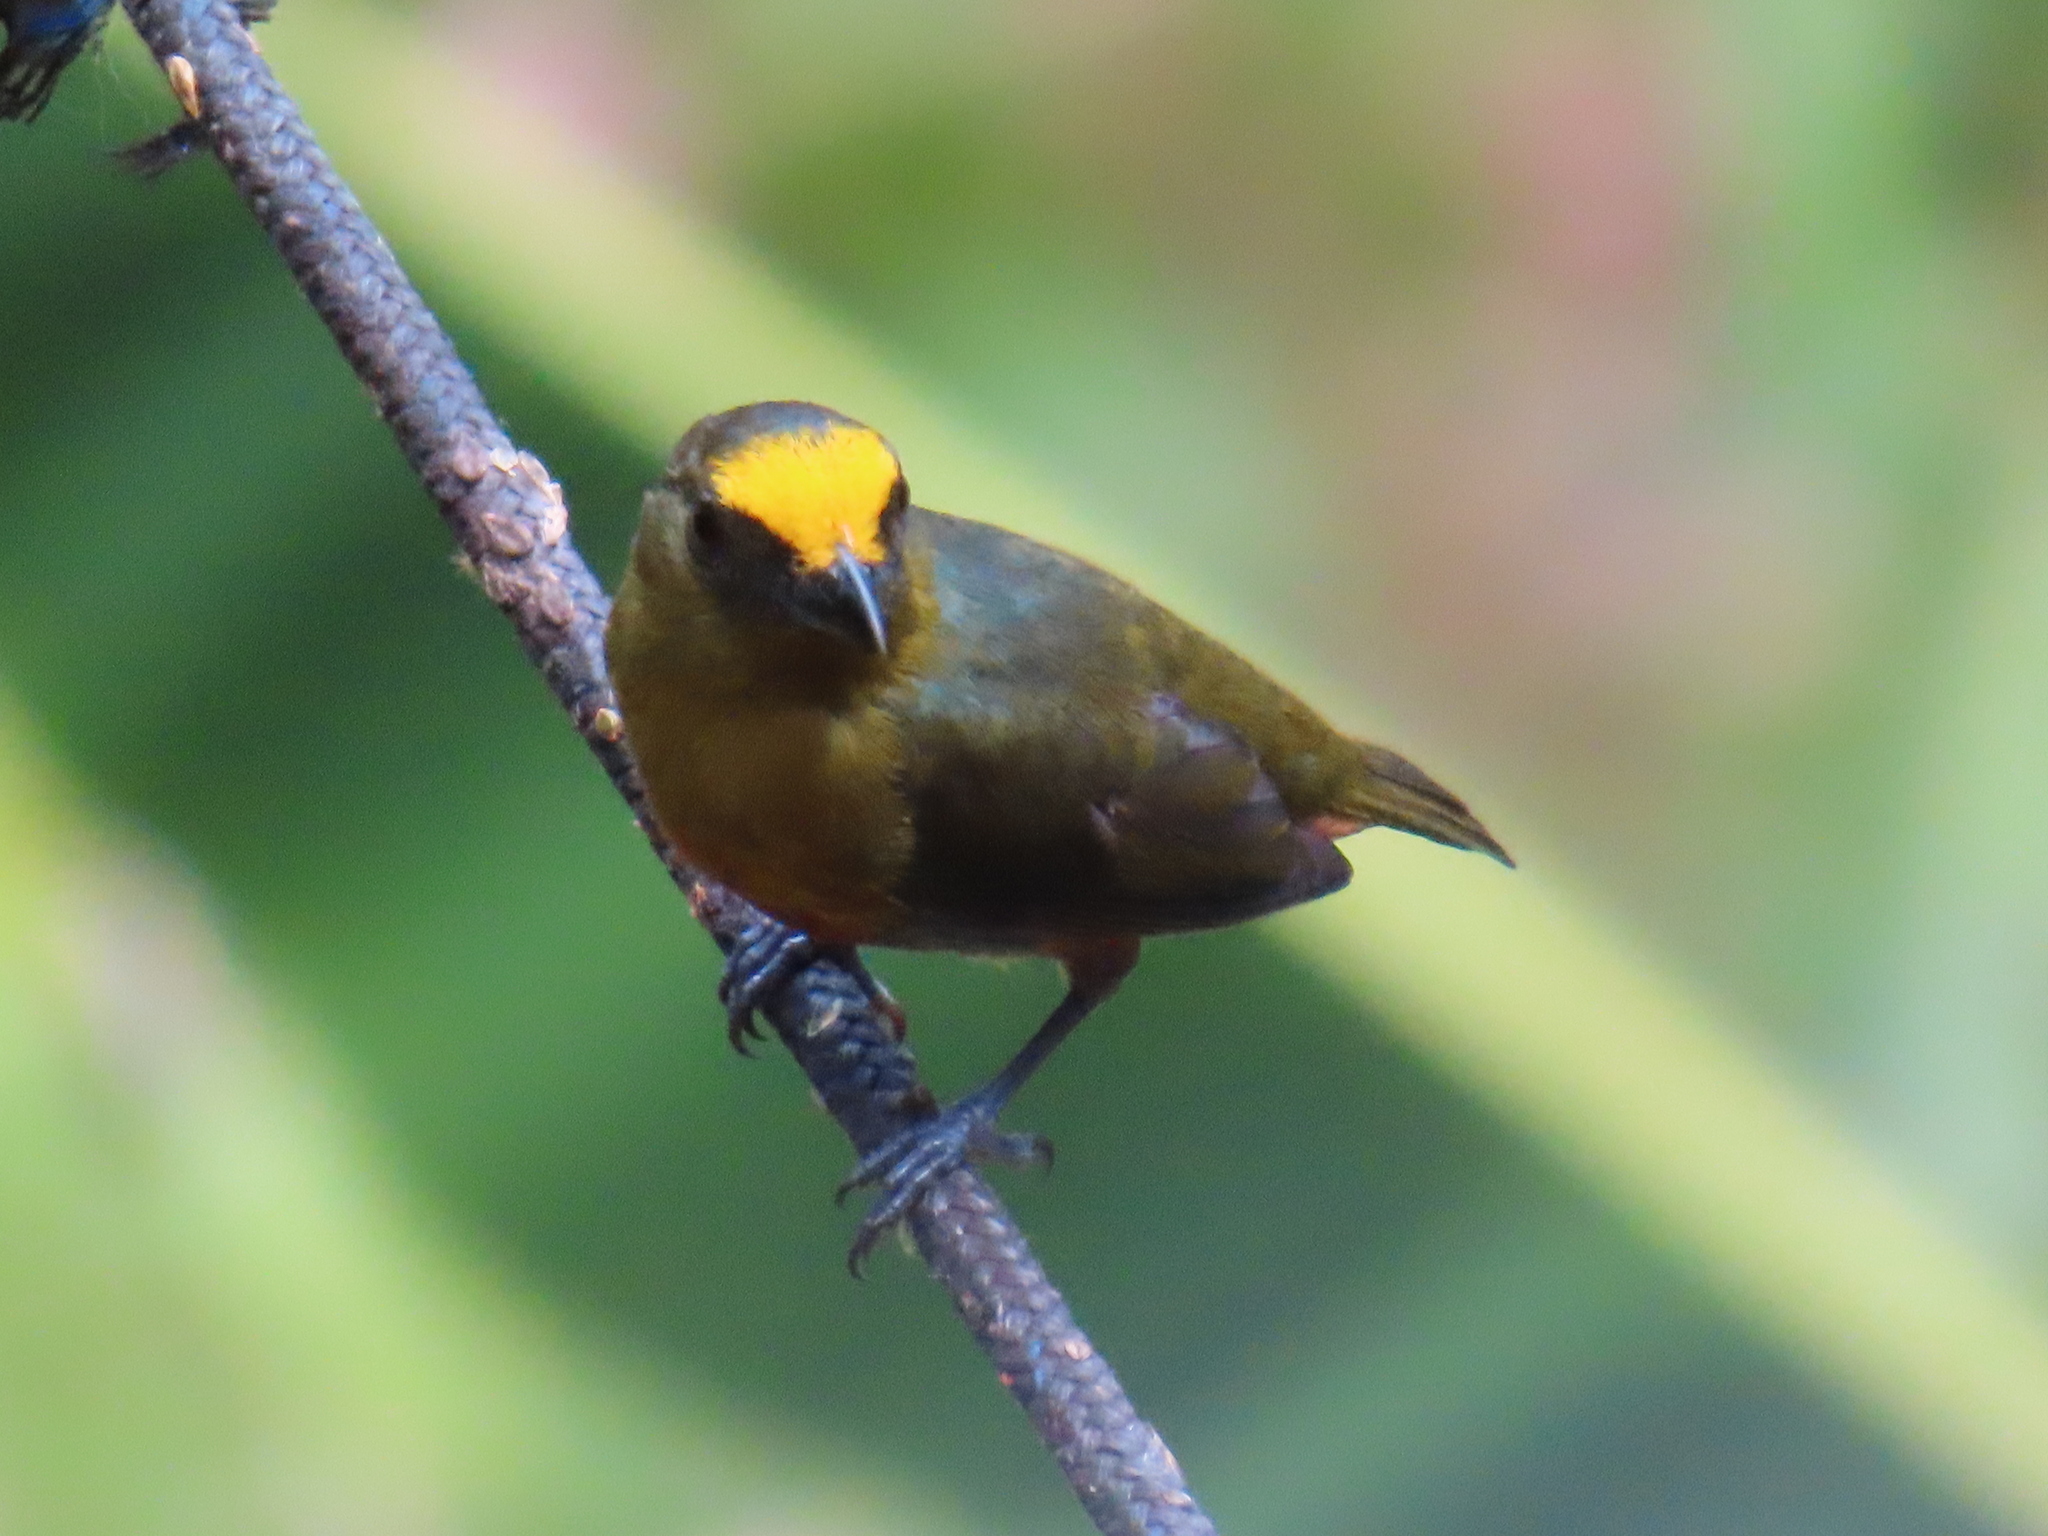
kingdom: Animalia
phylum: Chordata
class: Aves
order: Passeriformes
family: Fringillidae
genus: Euphonia
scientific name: Euphonia gouldi
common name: Olive-backed euphonia
